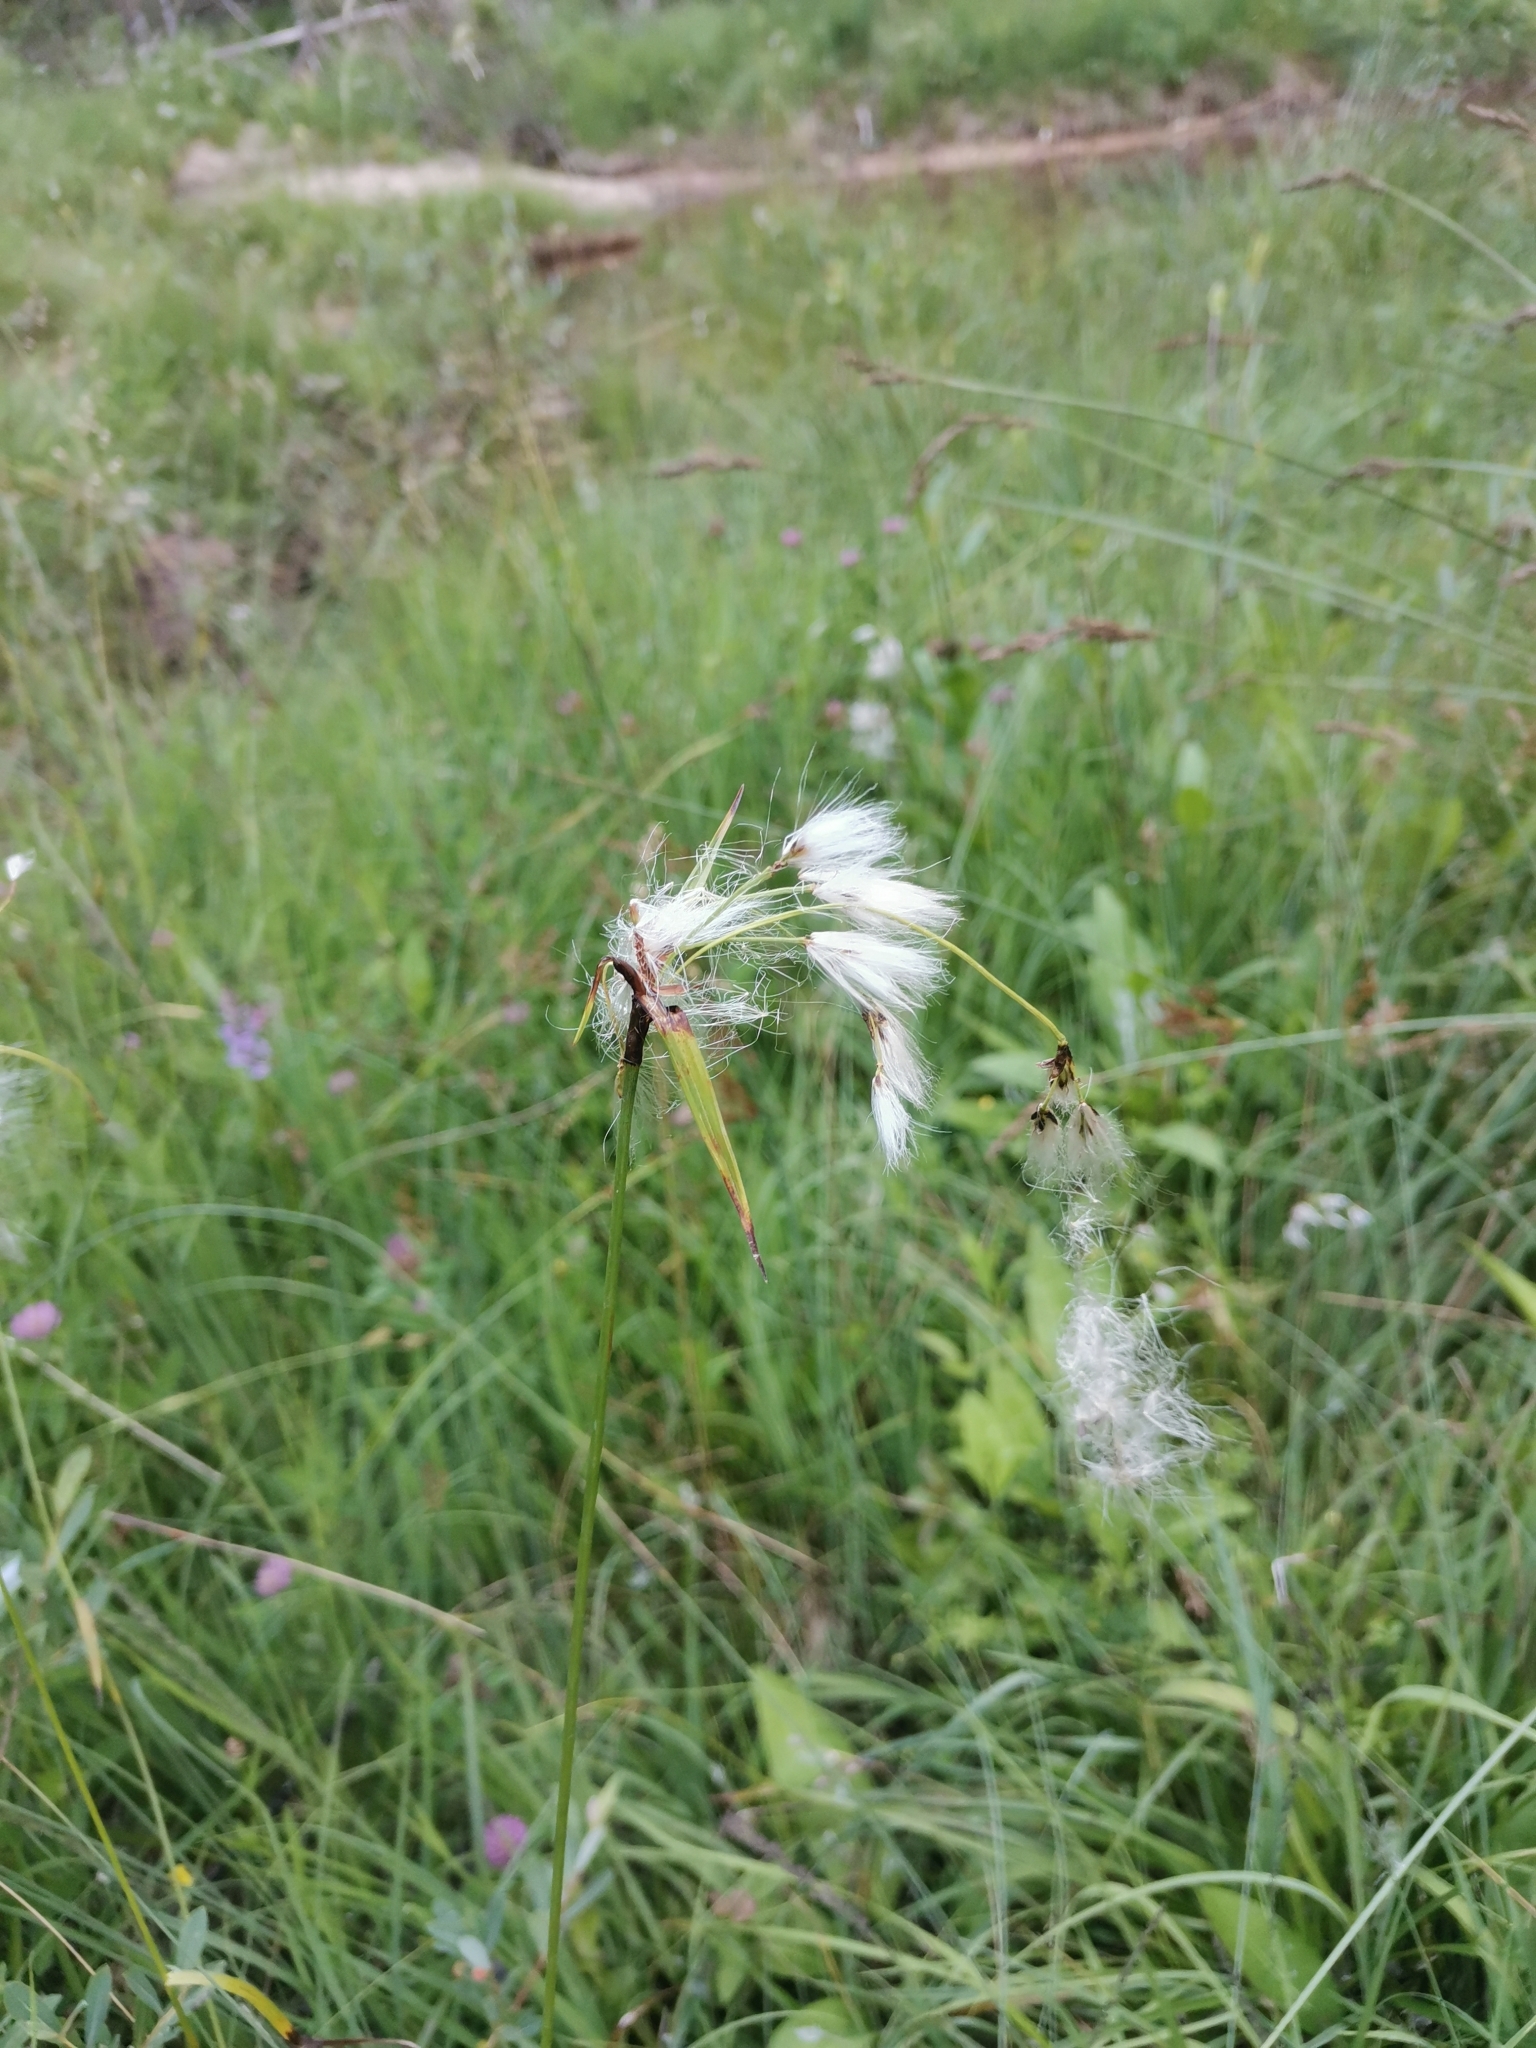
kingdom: Plantae
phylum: Tracheophyta
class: Liliopsida
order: Poales
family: Cyperaceae
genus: Eriophorum
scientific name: Eriophorum latifolium
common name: Broad-leaved cottongrass
